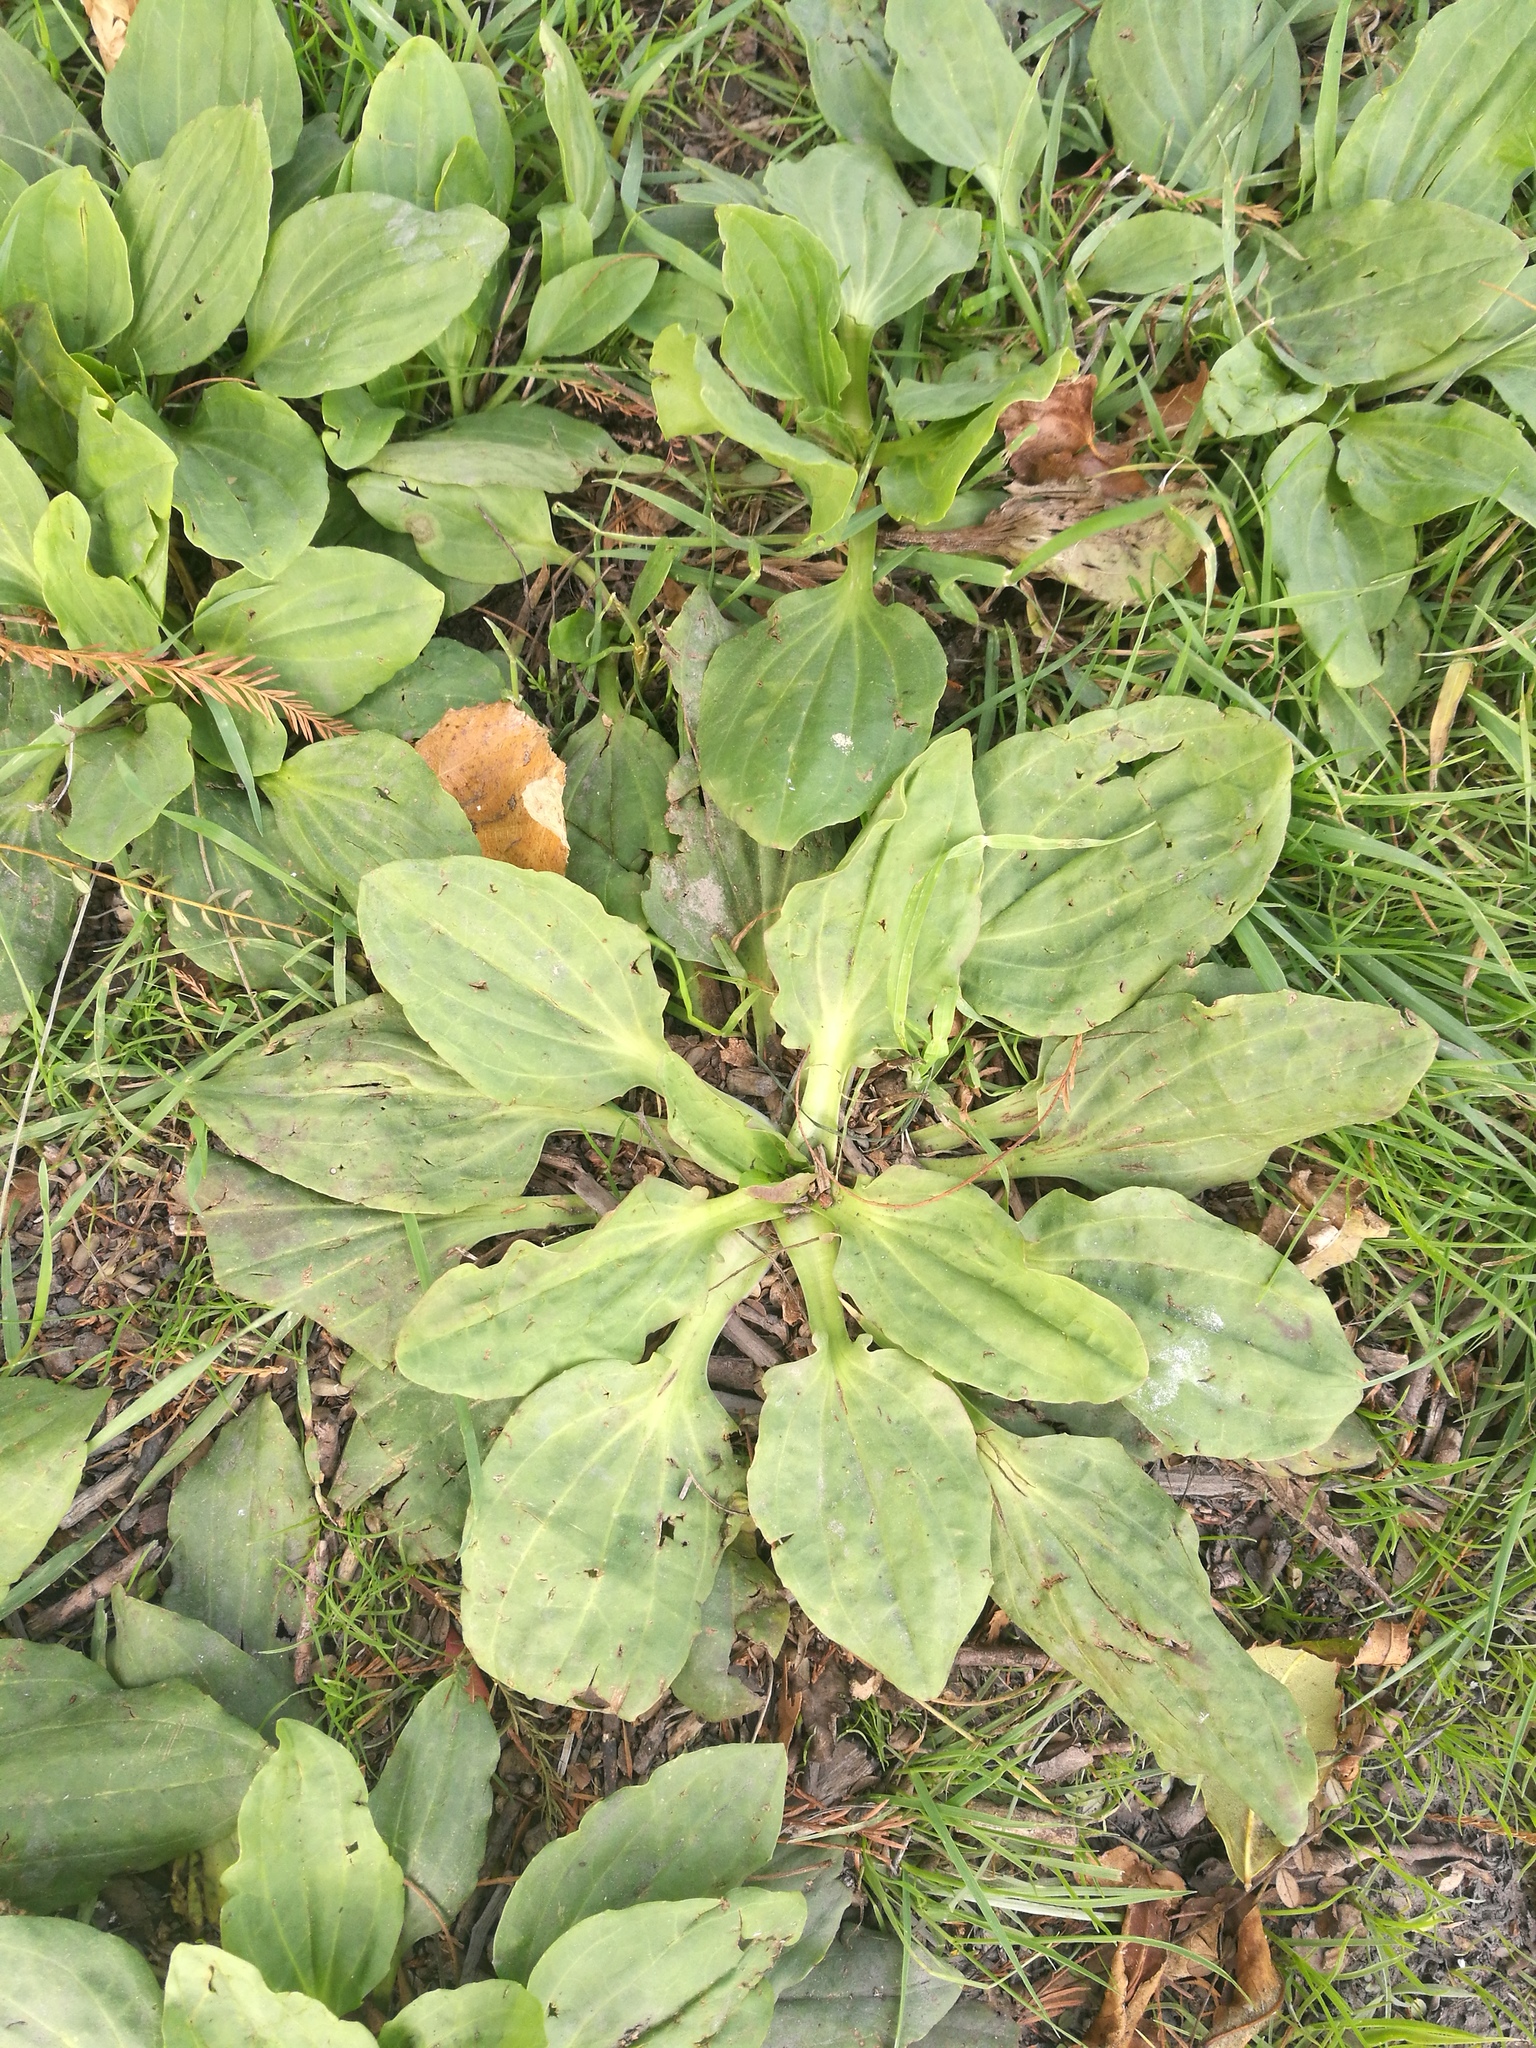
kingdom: Plantae
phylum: Tracheophyta
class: Magnoliopsida
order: Lamiales
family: Plantaginaceae
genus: Plantago
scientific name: Plantago major
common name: Common plantain
